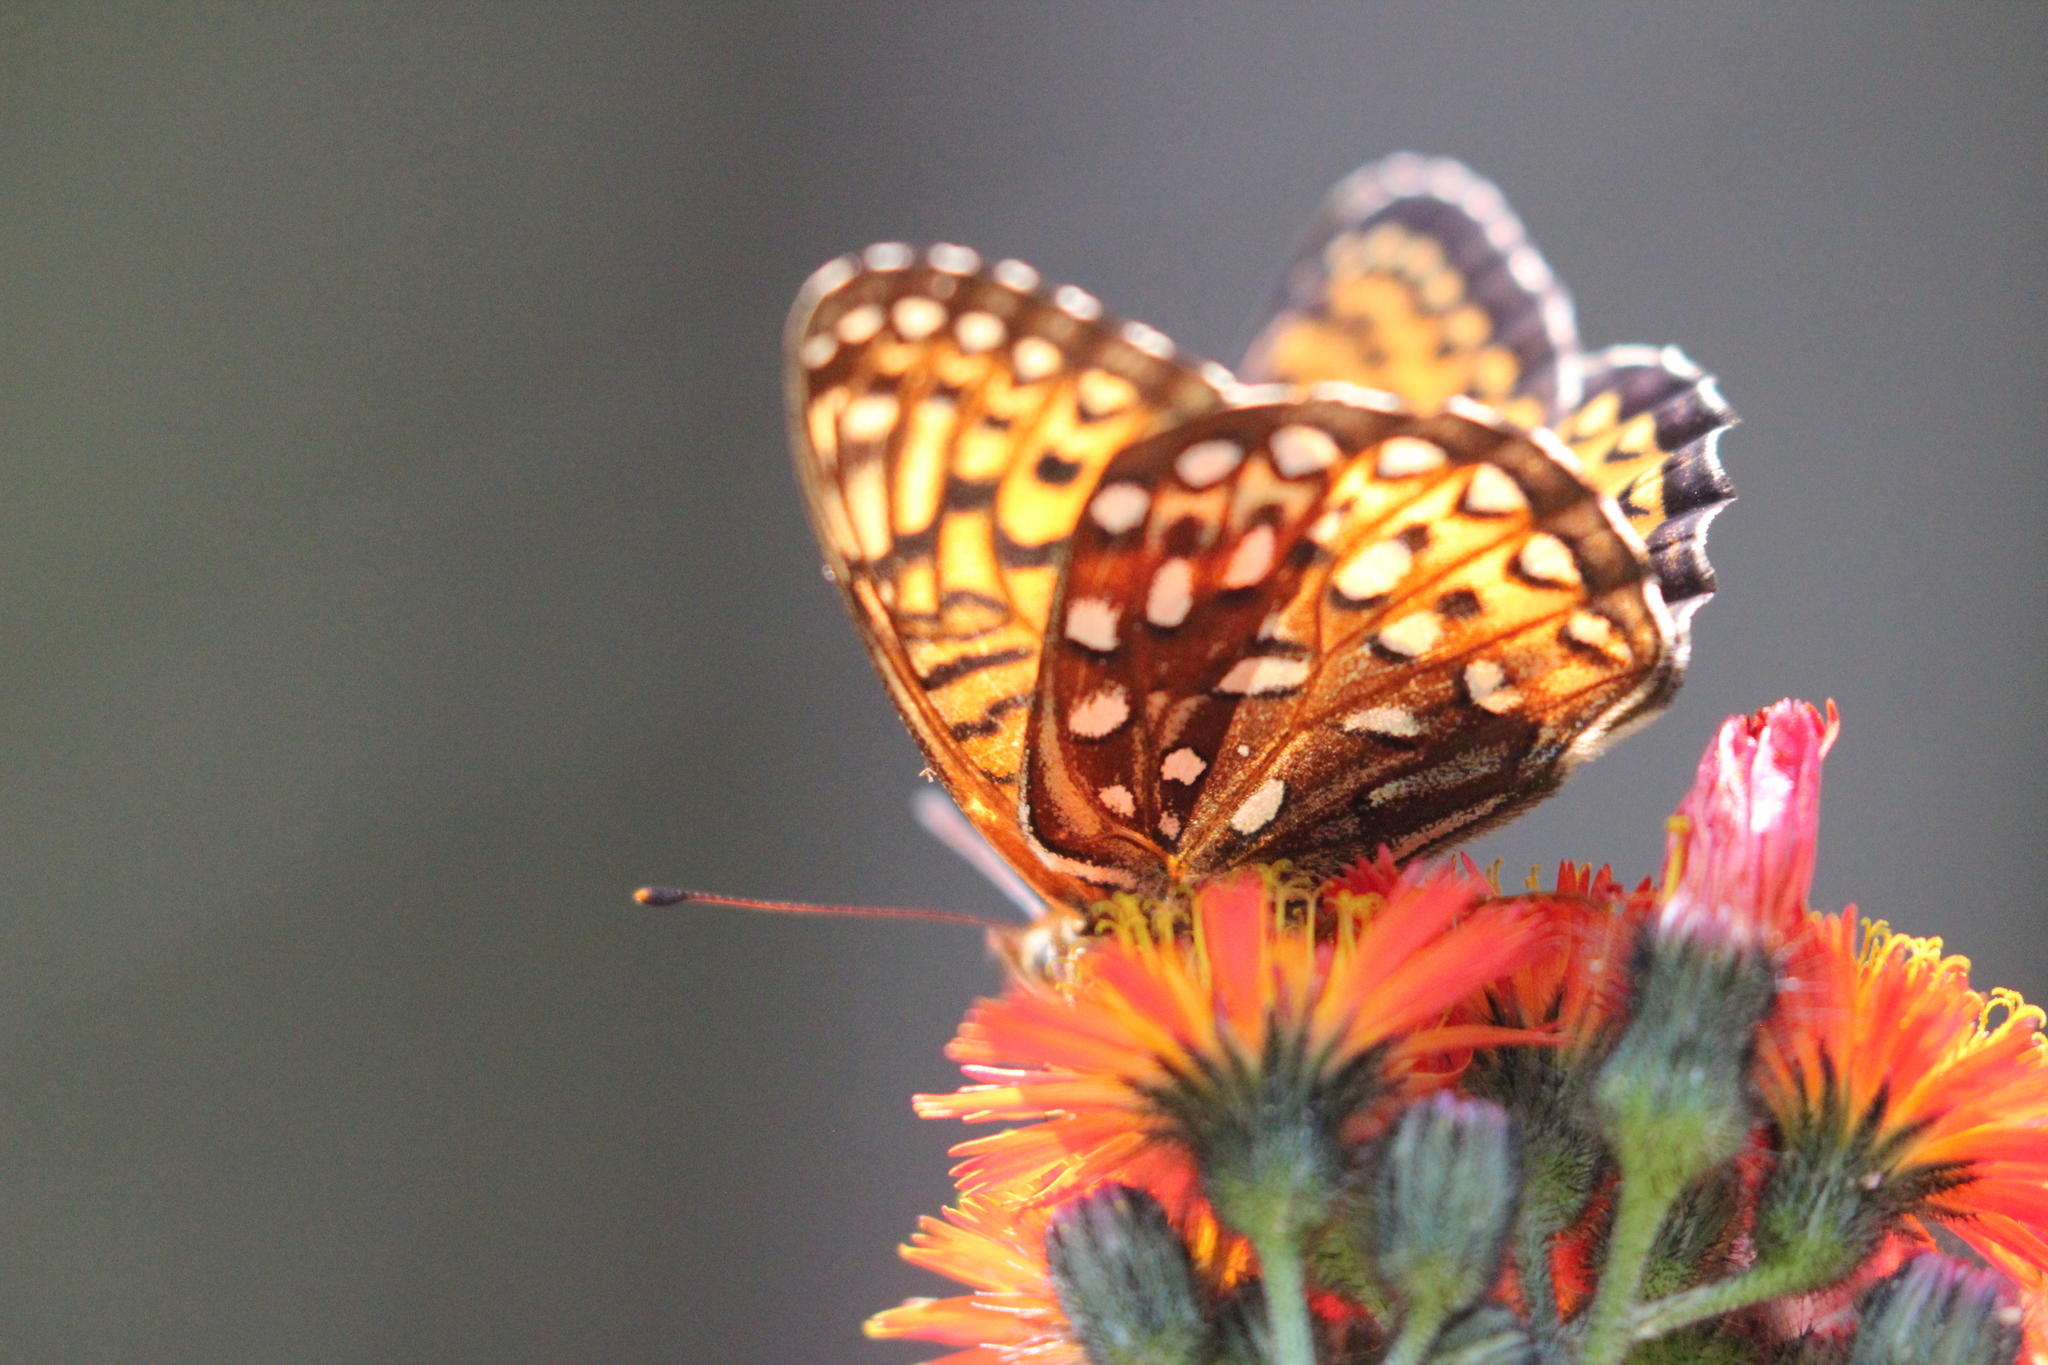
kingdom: Animalia
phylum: Arthropoda
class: Insecta
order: Lepidoptera
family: Nymphalidae
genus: Speyeria
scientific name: Speyeria atlantis
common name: Atlantis fritillary
